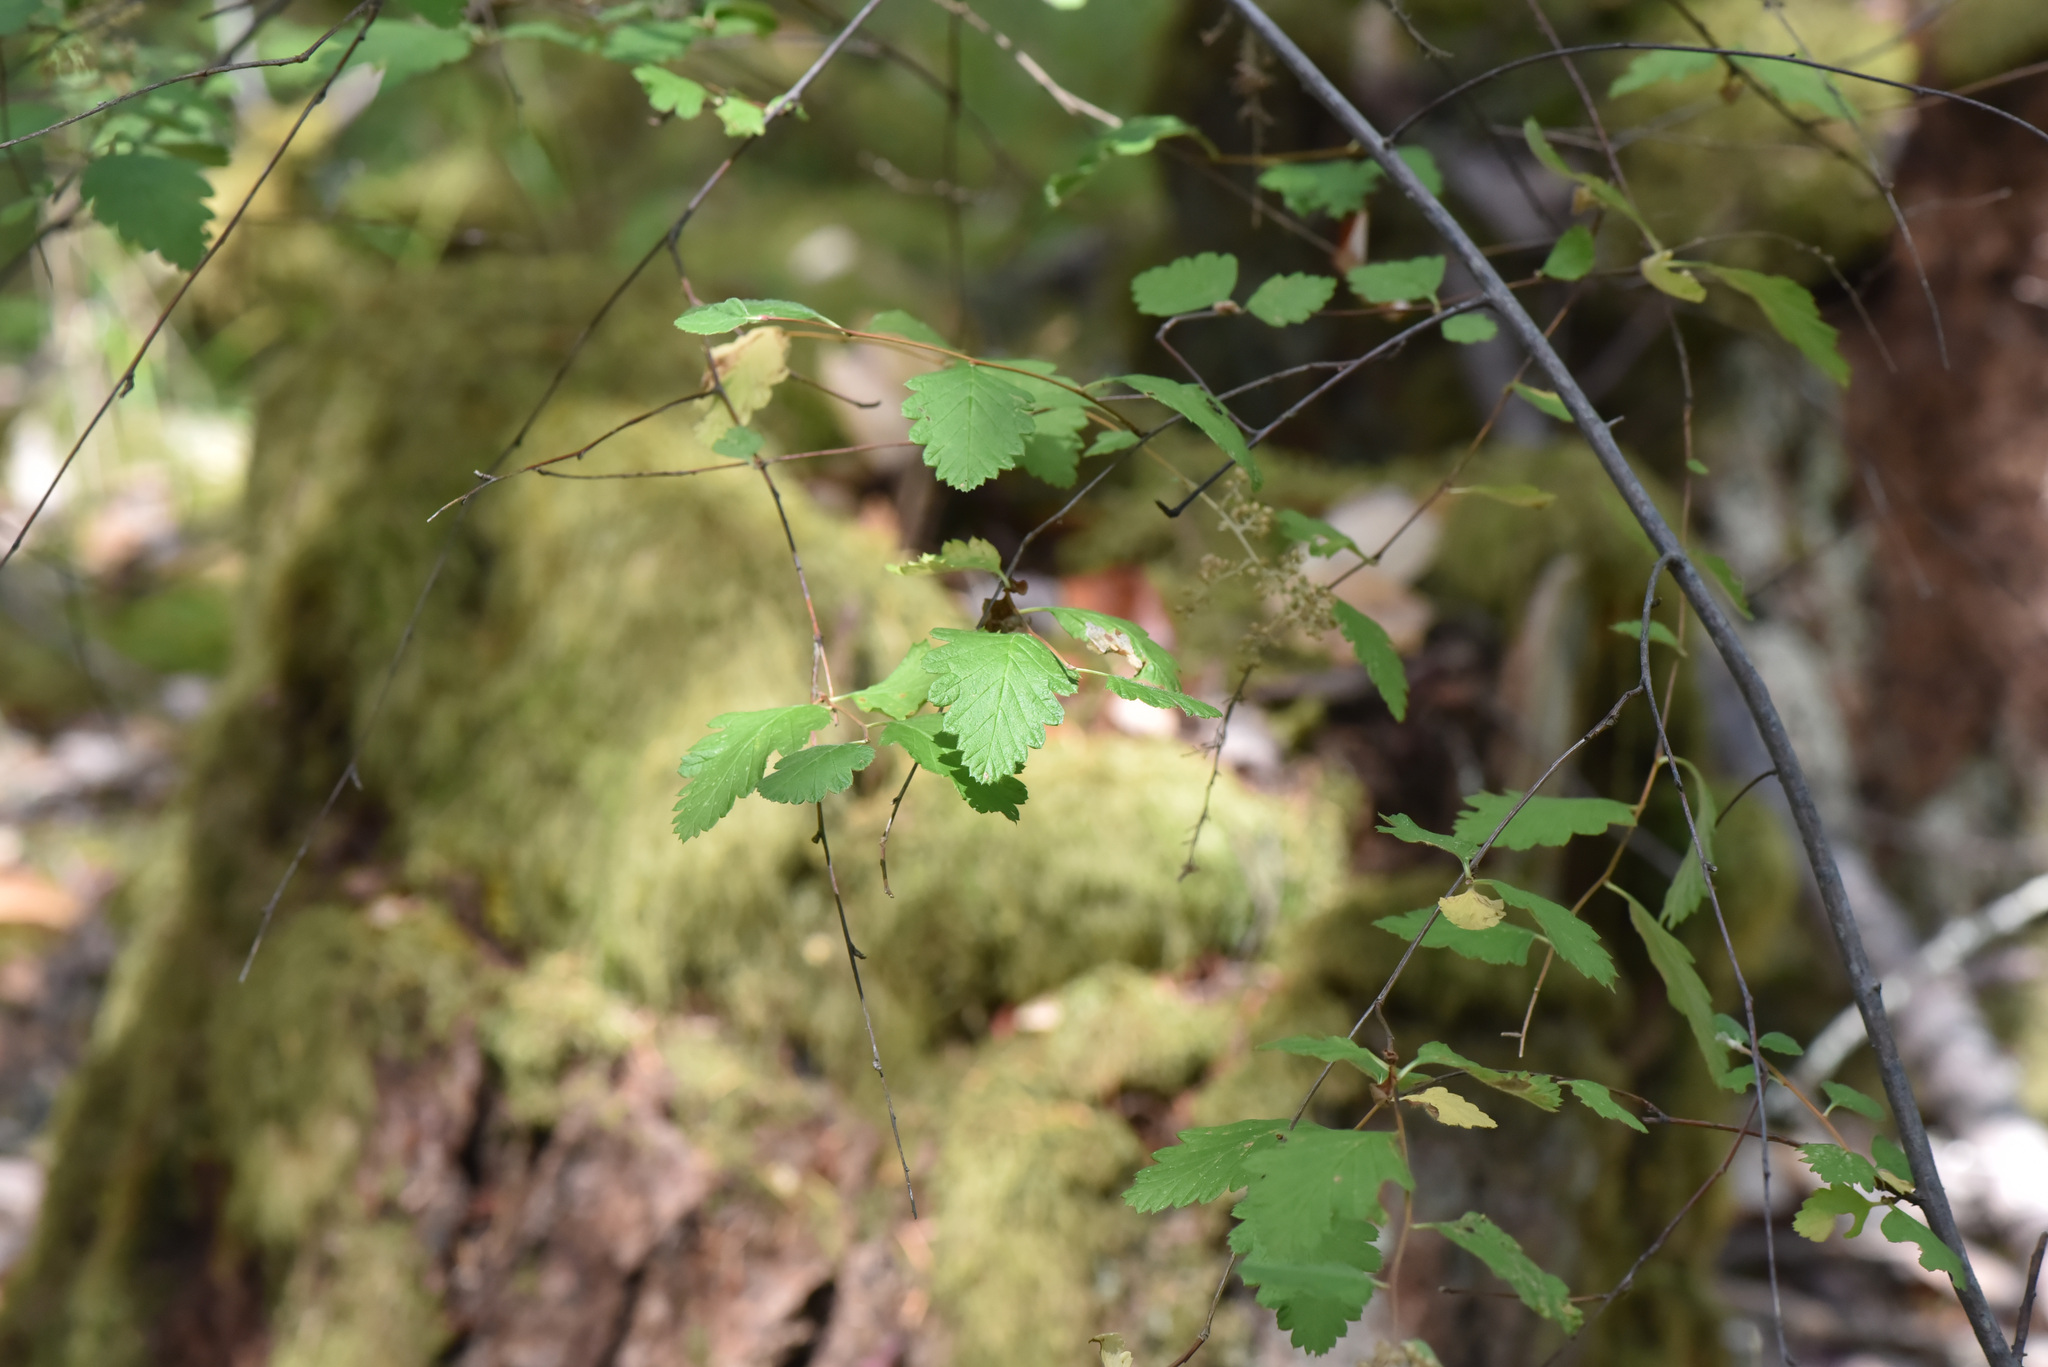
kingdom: Plantae
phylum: Tracheophyta
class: Magnoliopsida
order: Rosales
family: Rosaceae
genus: Holodiscus
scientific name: Holodiscus discolor
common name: Oceanspray
